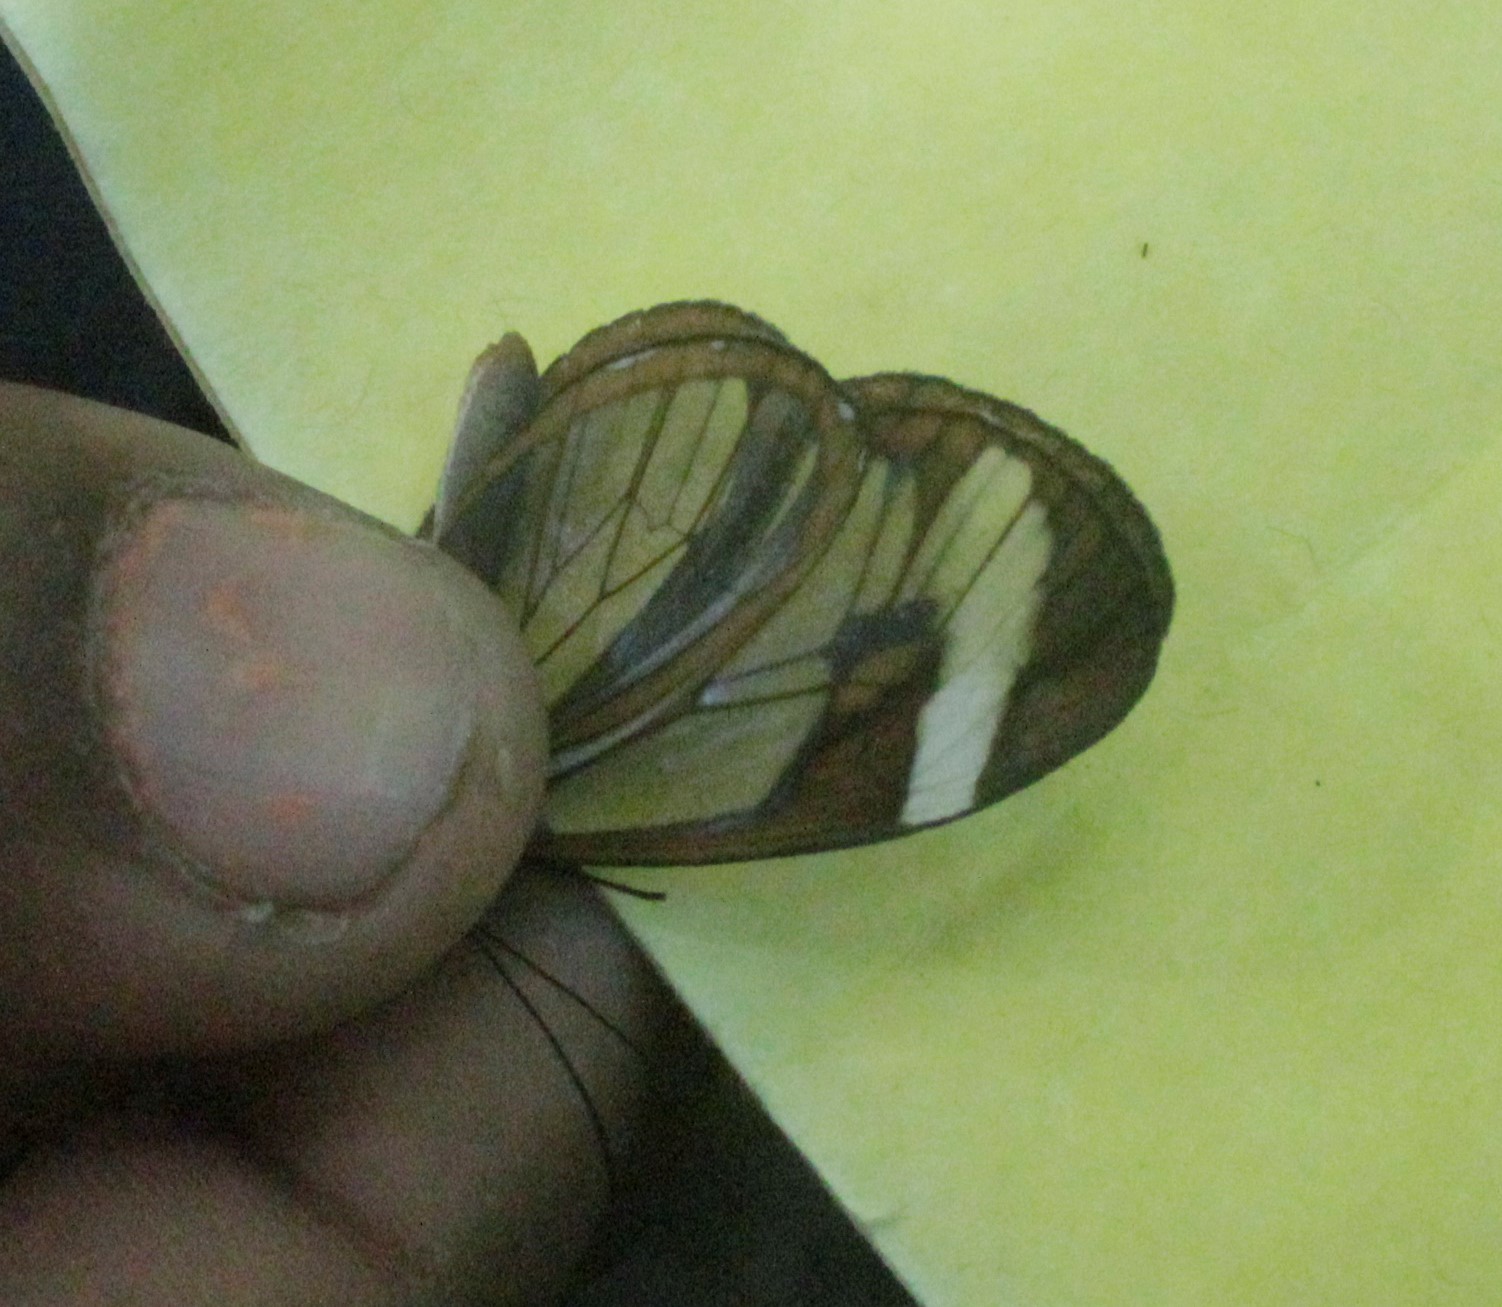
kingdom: Animalia
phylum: Arthropoda
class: Insecta
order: Lepidoptera
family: Nymphalidae
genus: Ithomia
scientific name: Ithomia patilla
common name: Patilla clearwing
